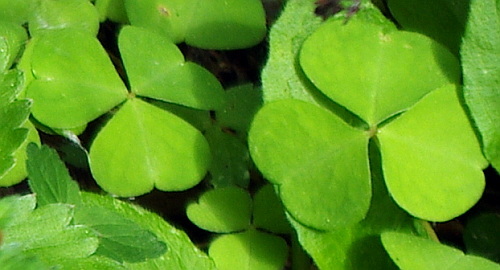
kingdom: Plantae
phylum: Tracheophyta
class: Magnoliopsida
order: Oxalidales
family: Oxalidaceae
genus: Oxalis
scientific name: Oxalis acetosella
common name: Wood-sorrel
